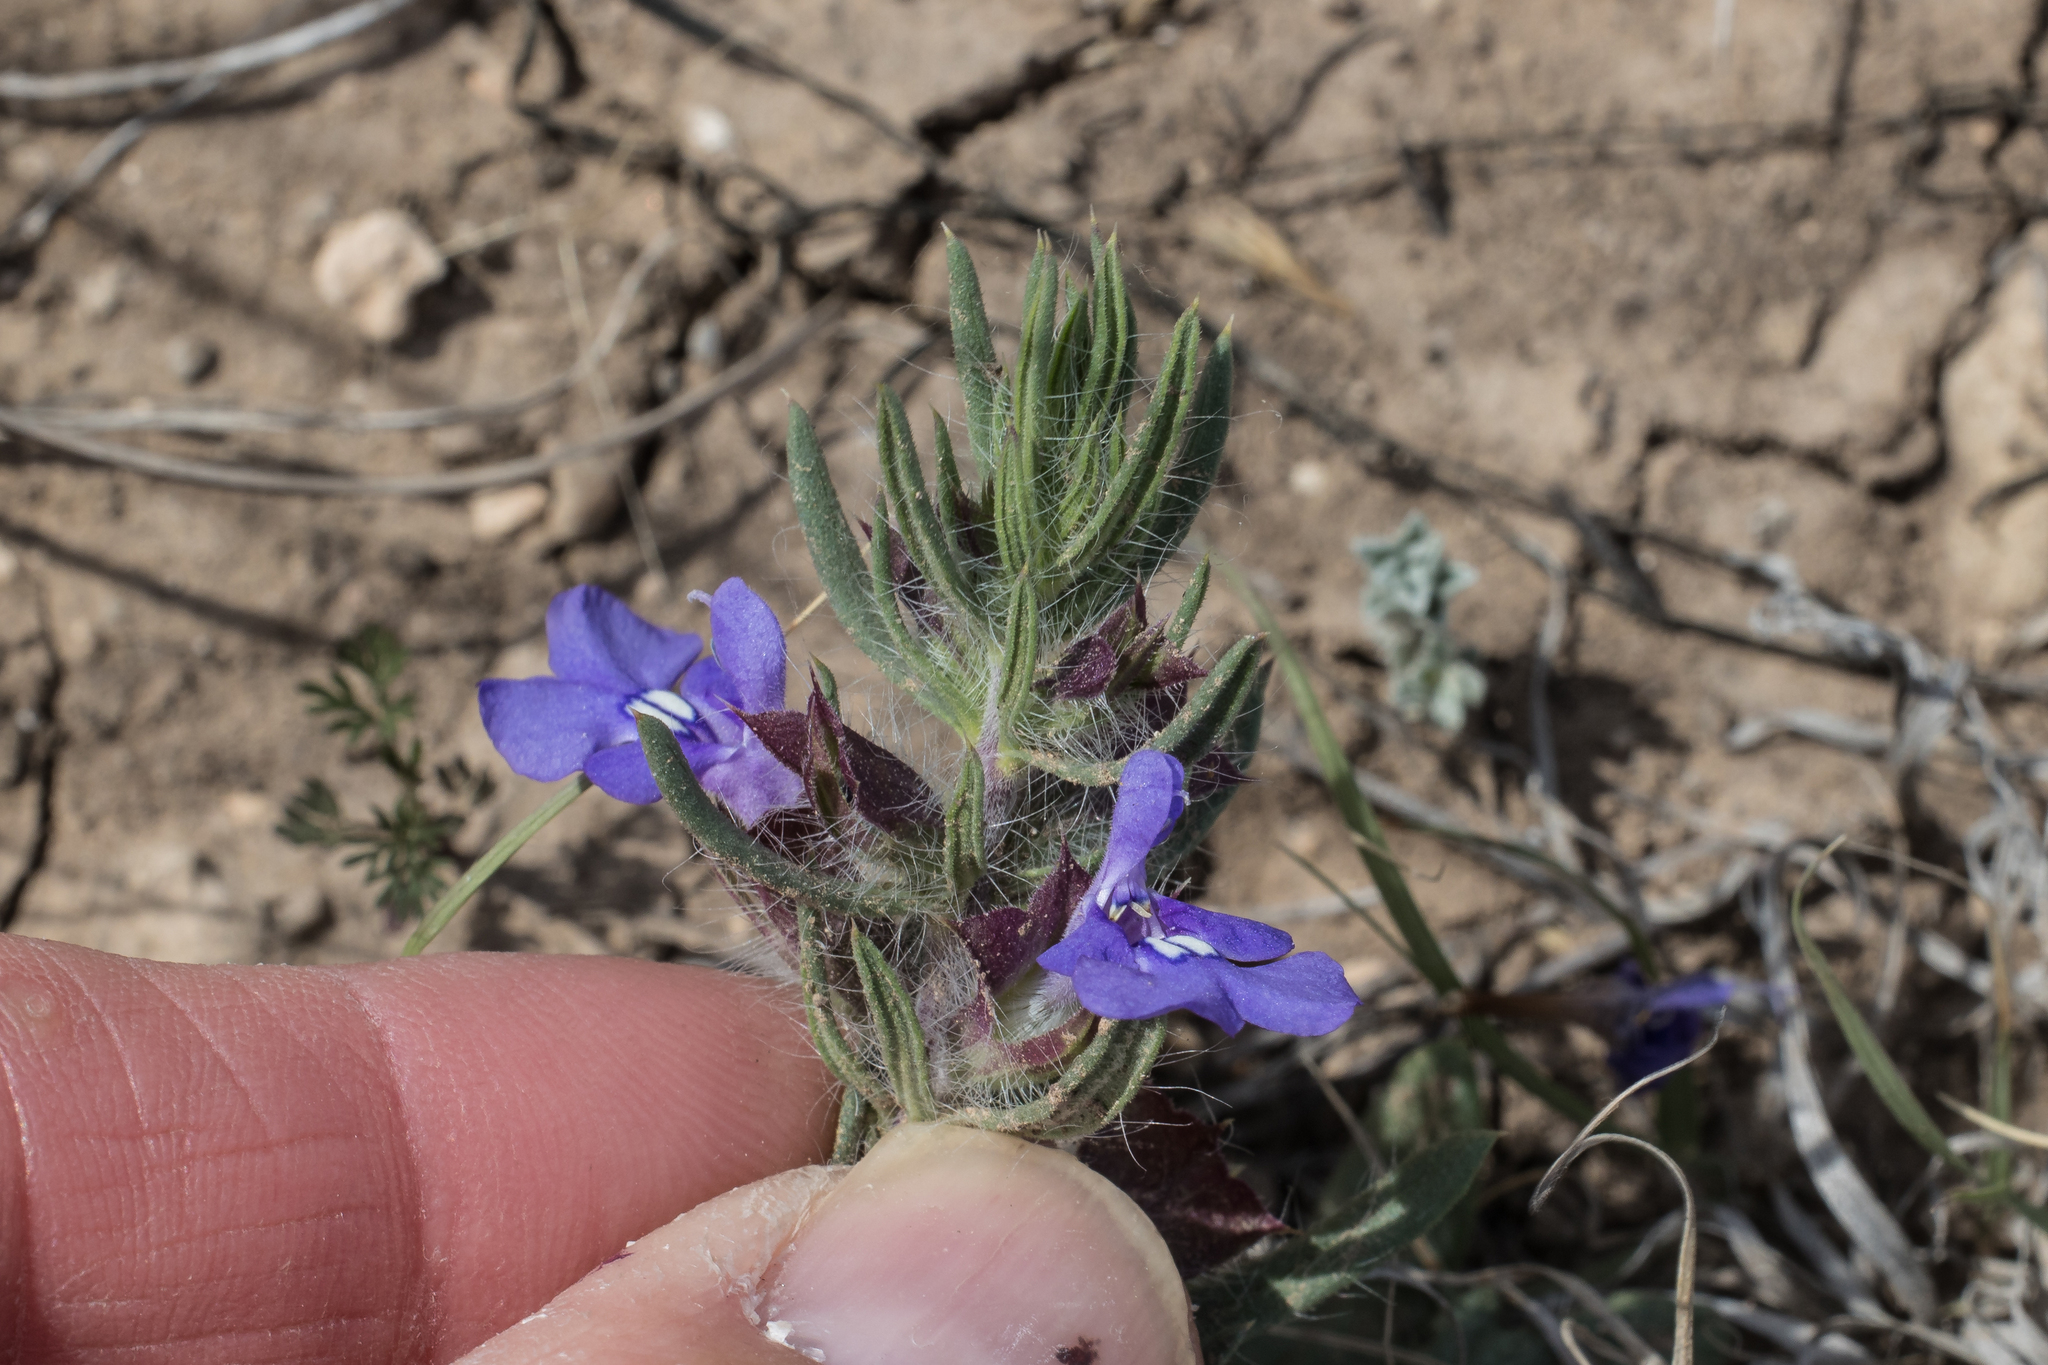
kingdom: Plantae
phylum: Tracheophyta
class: Magnoliopsida
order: Lamiales
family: Lamiaceae
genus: Salvia
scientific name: Salvia texana
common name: Texas sage
